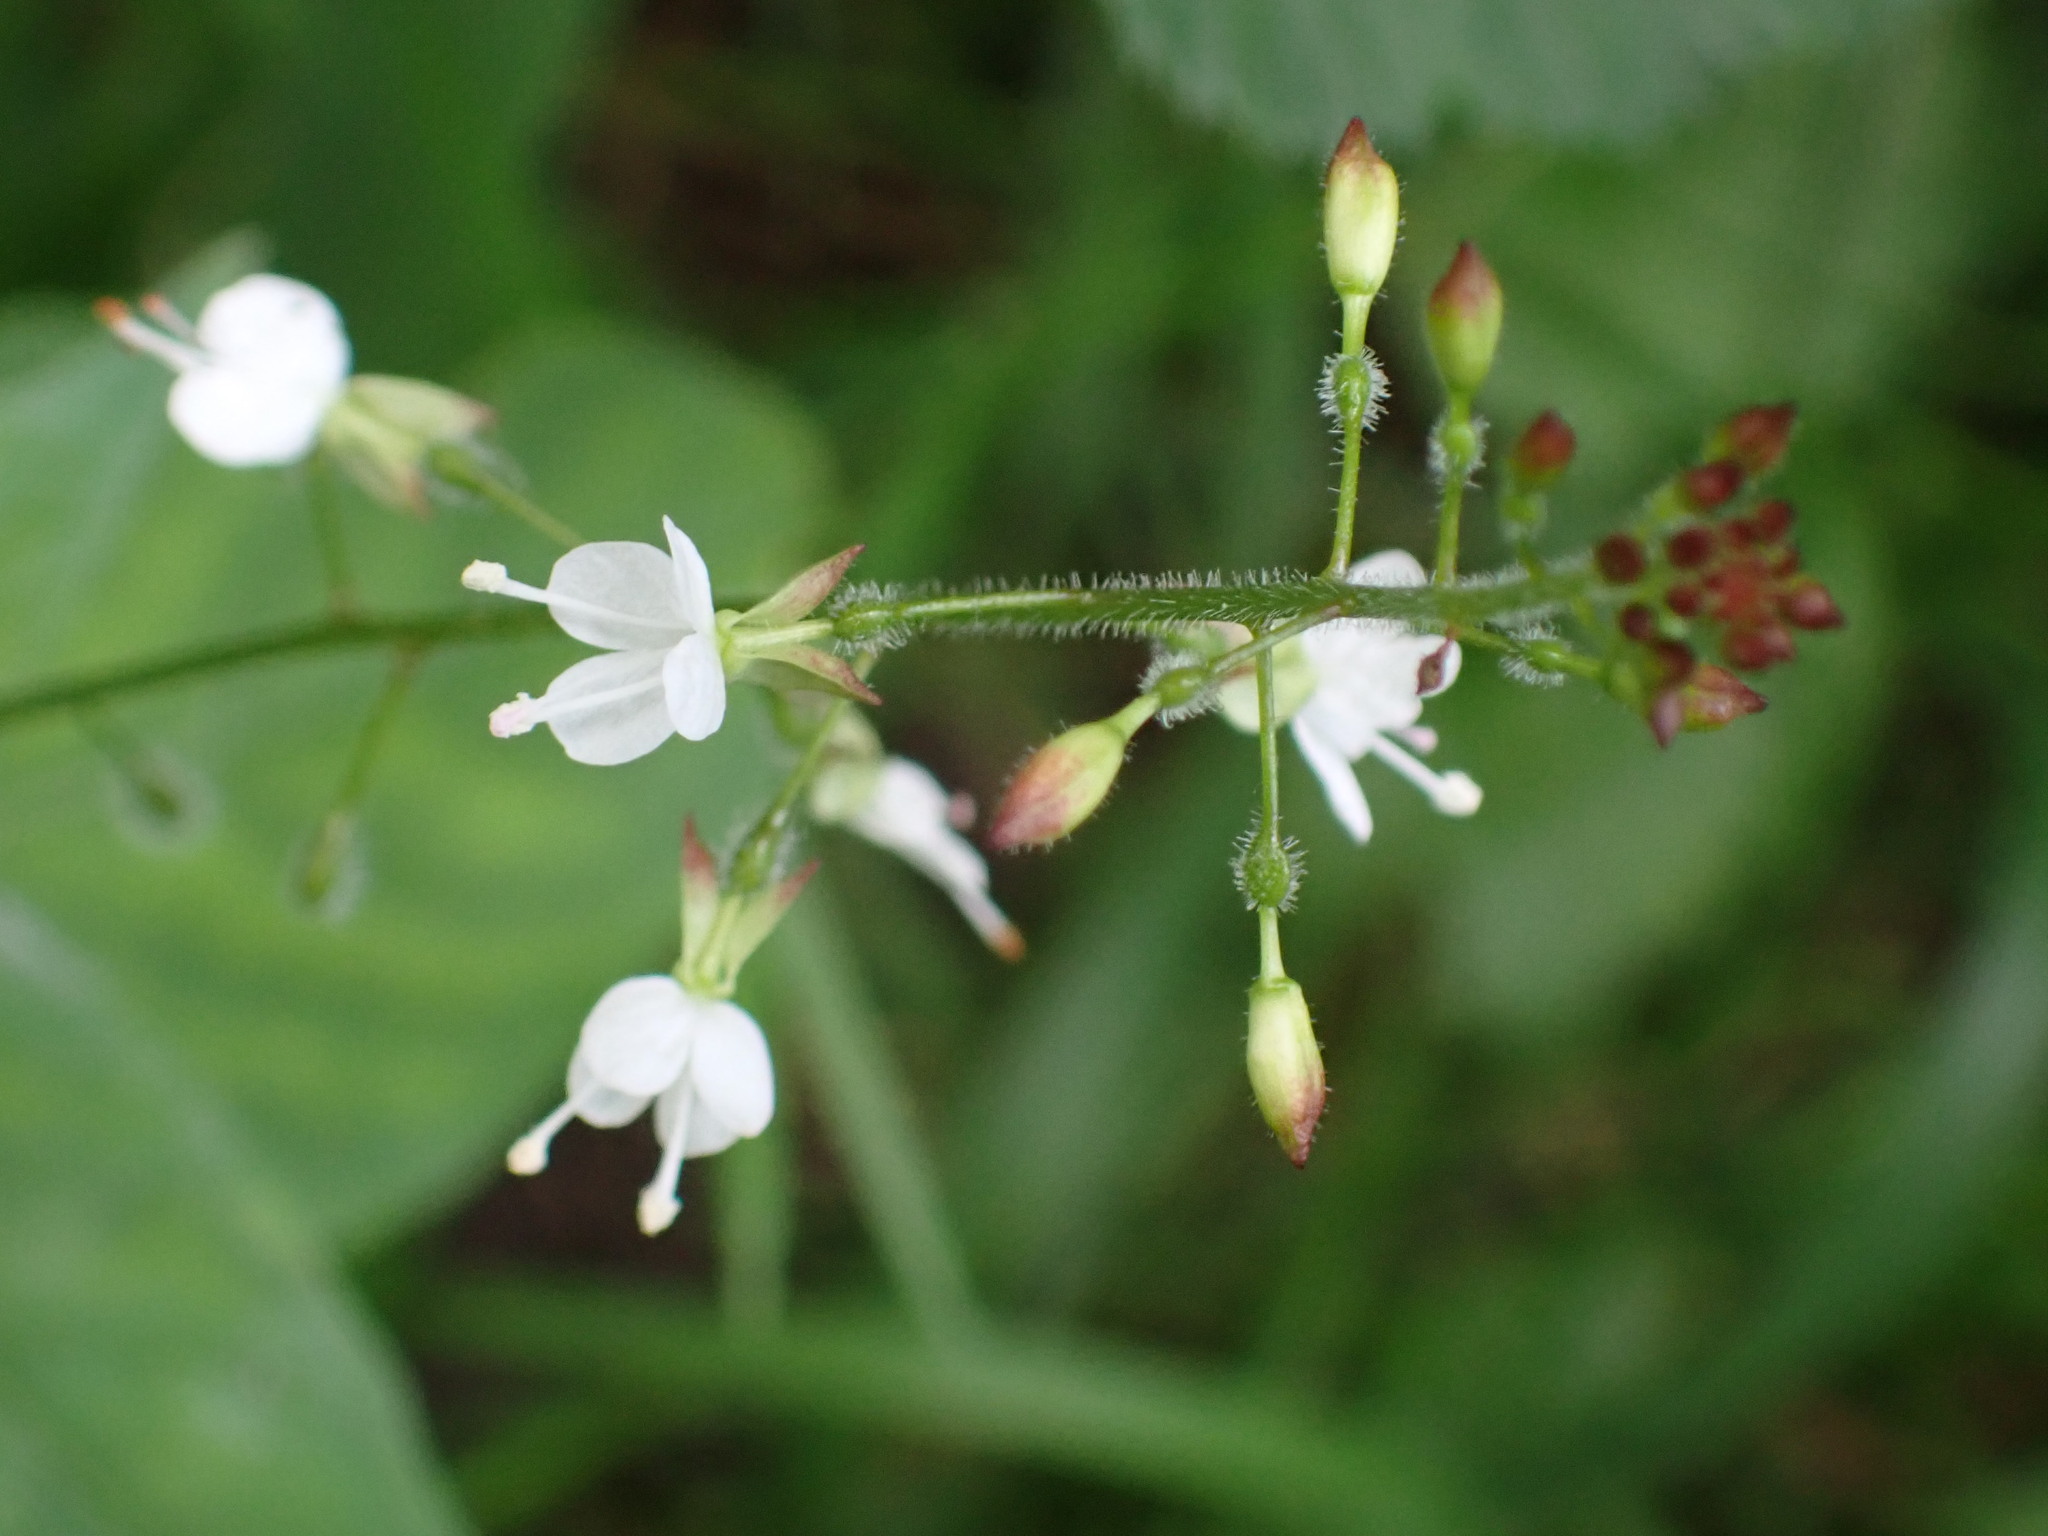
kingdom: Plantae
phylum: Tracheophyta
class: Magnoliopsida
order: Myrtales
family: Onagraceae
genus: Circaea
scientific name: Circaea lutetiana
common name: Enchanter's-nightshade
